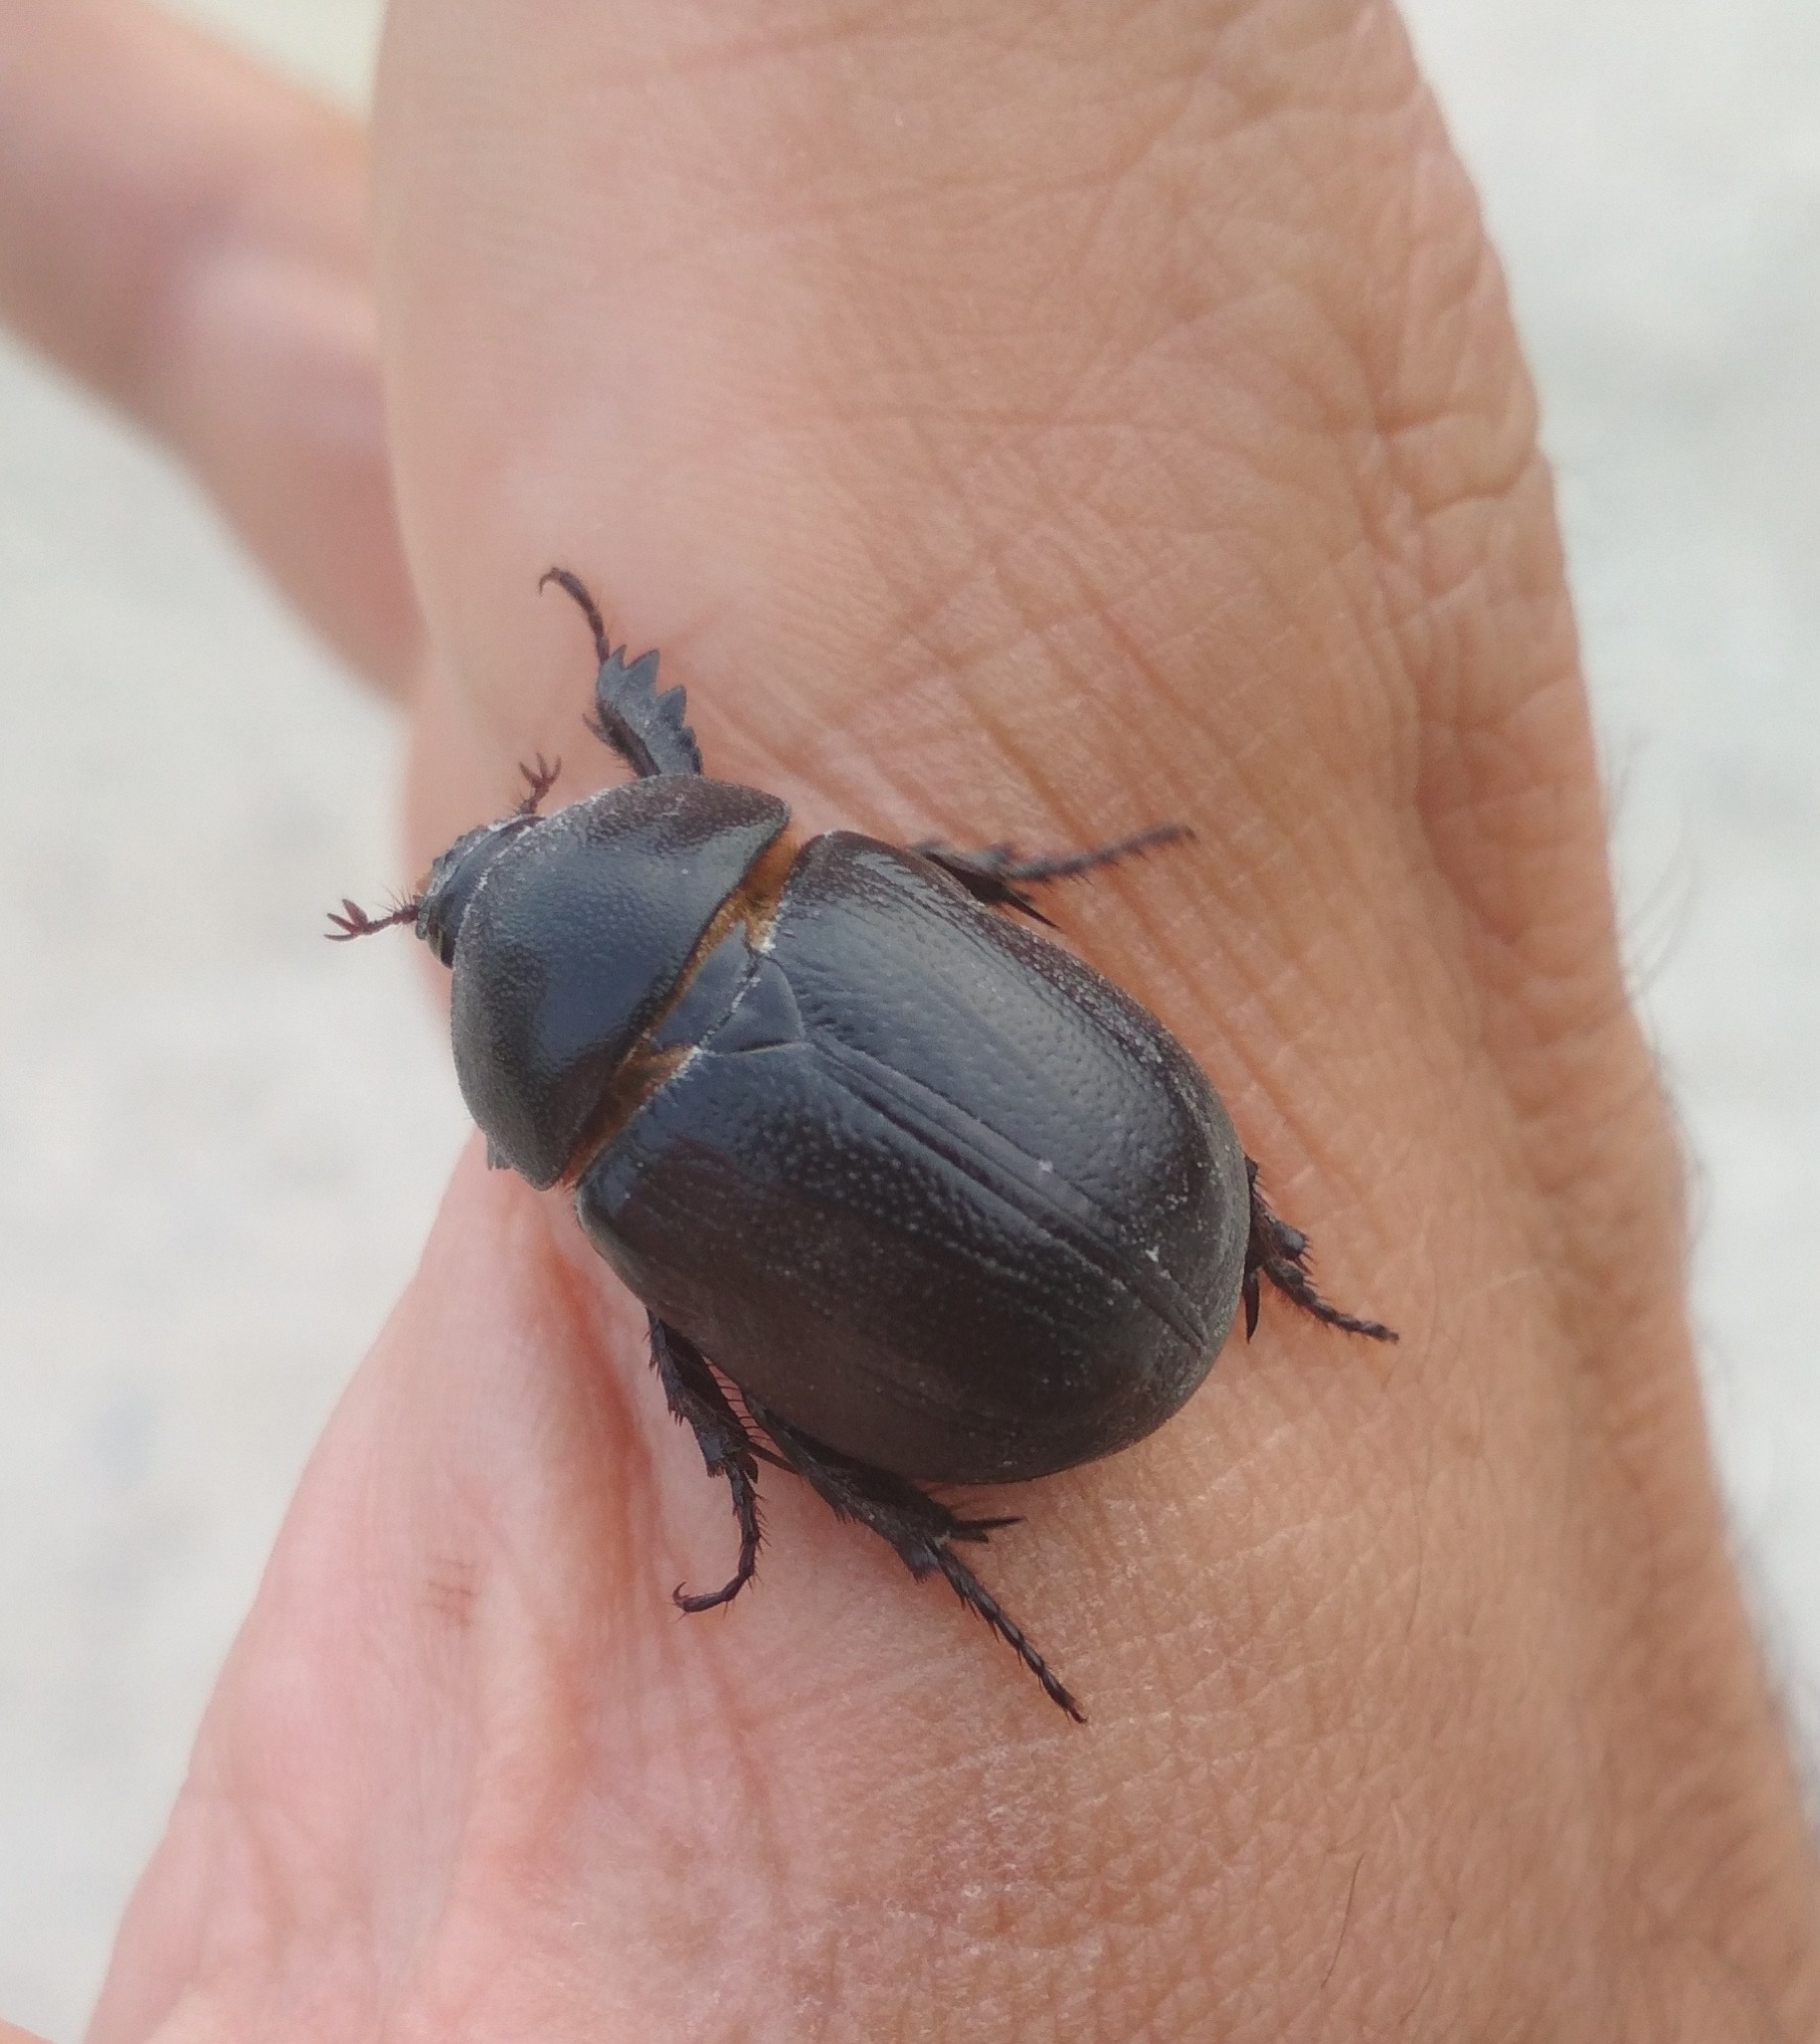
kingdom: Animalia
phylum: Arthropoda
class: Insecta
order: Coleoptera
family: Scarabaeidae
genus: Pentodon
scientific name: Pentodon bidens
